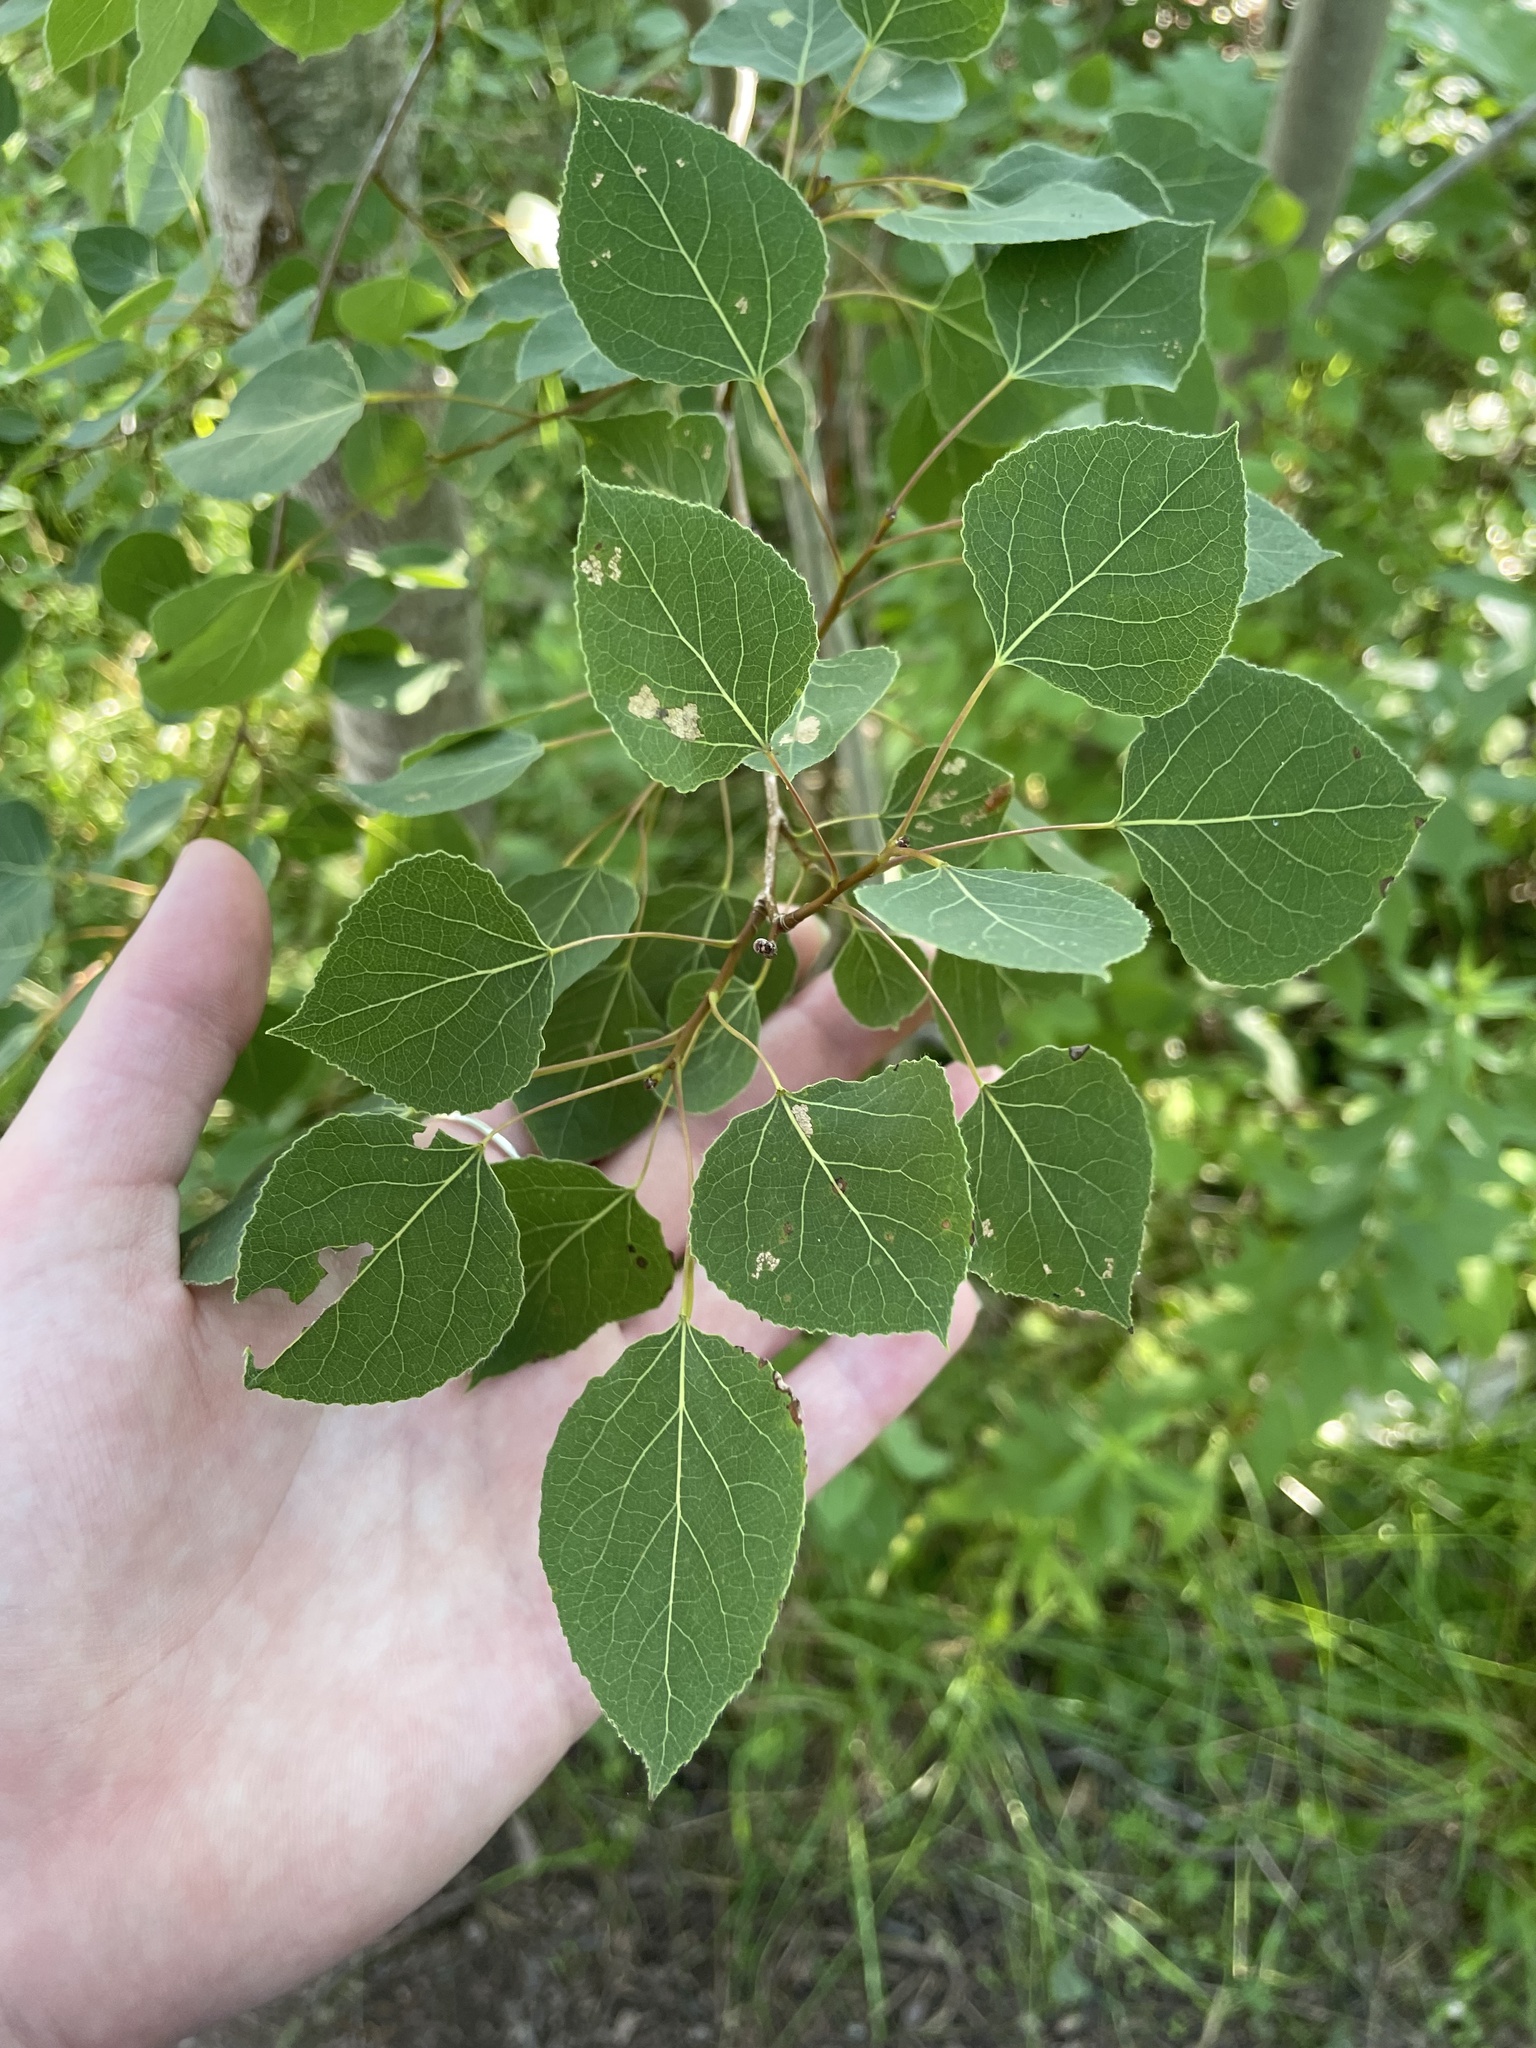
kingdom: Plantae
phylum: Tracheophyta
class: Magnoliopsida
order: Malpighiales
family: Salicaceae
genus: Populus
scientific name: Populus tremuloides
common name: Quaking aspen
